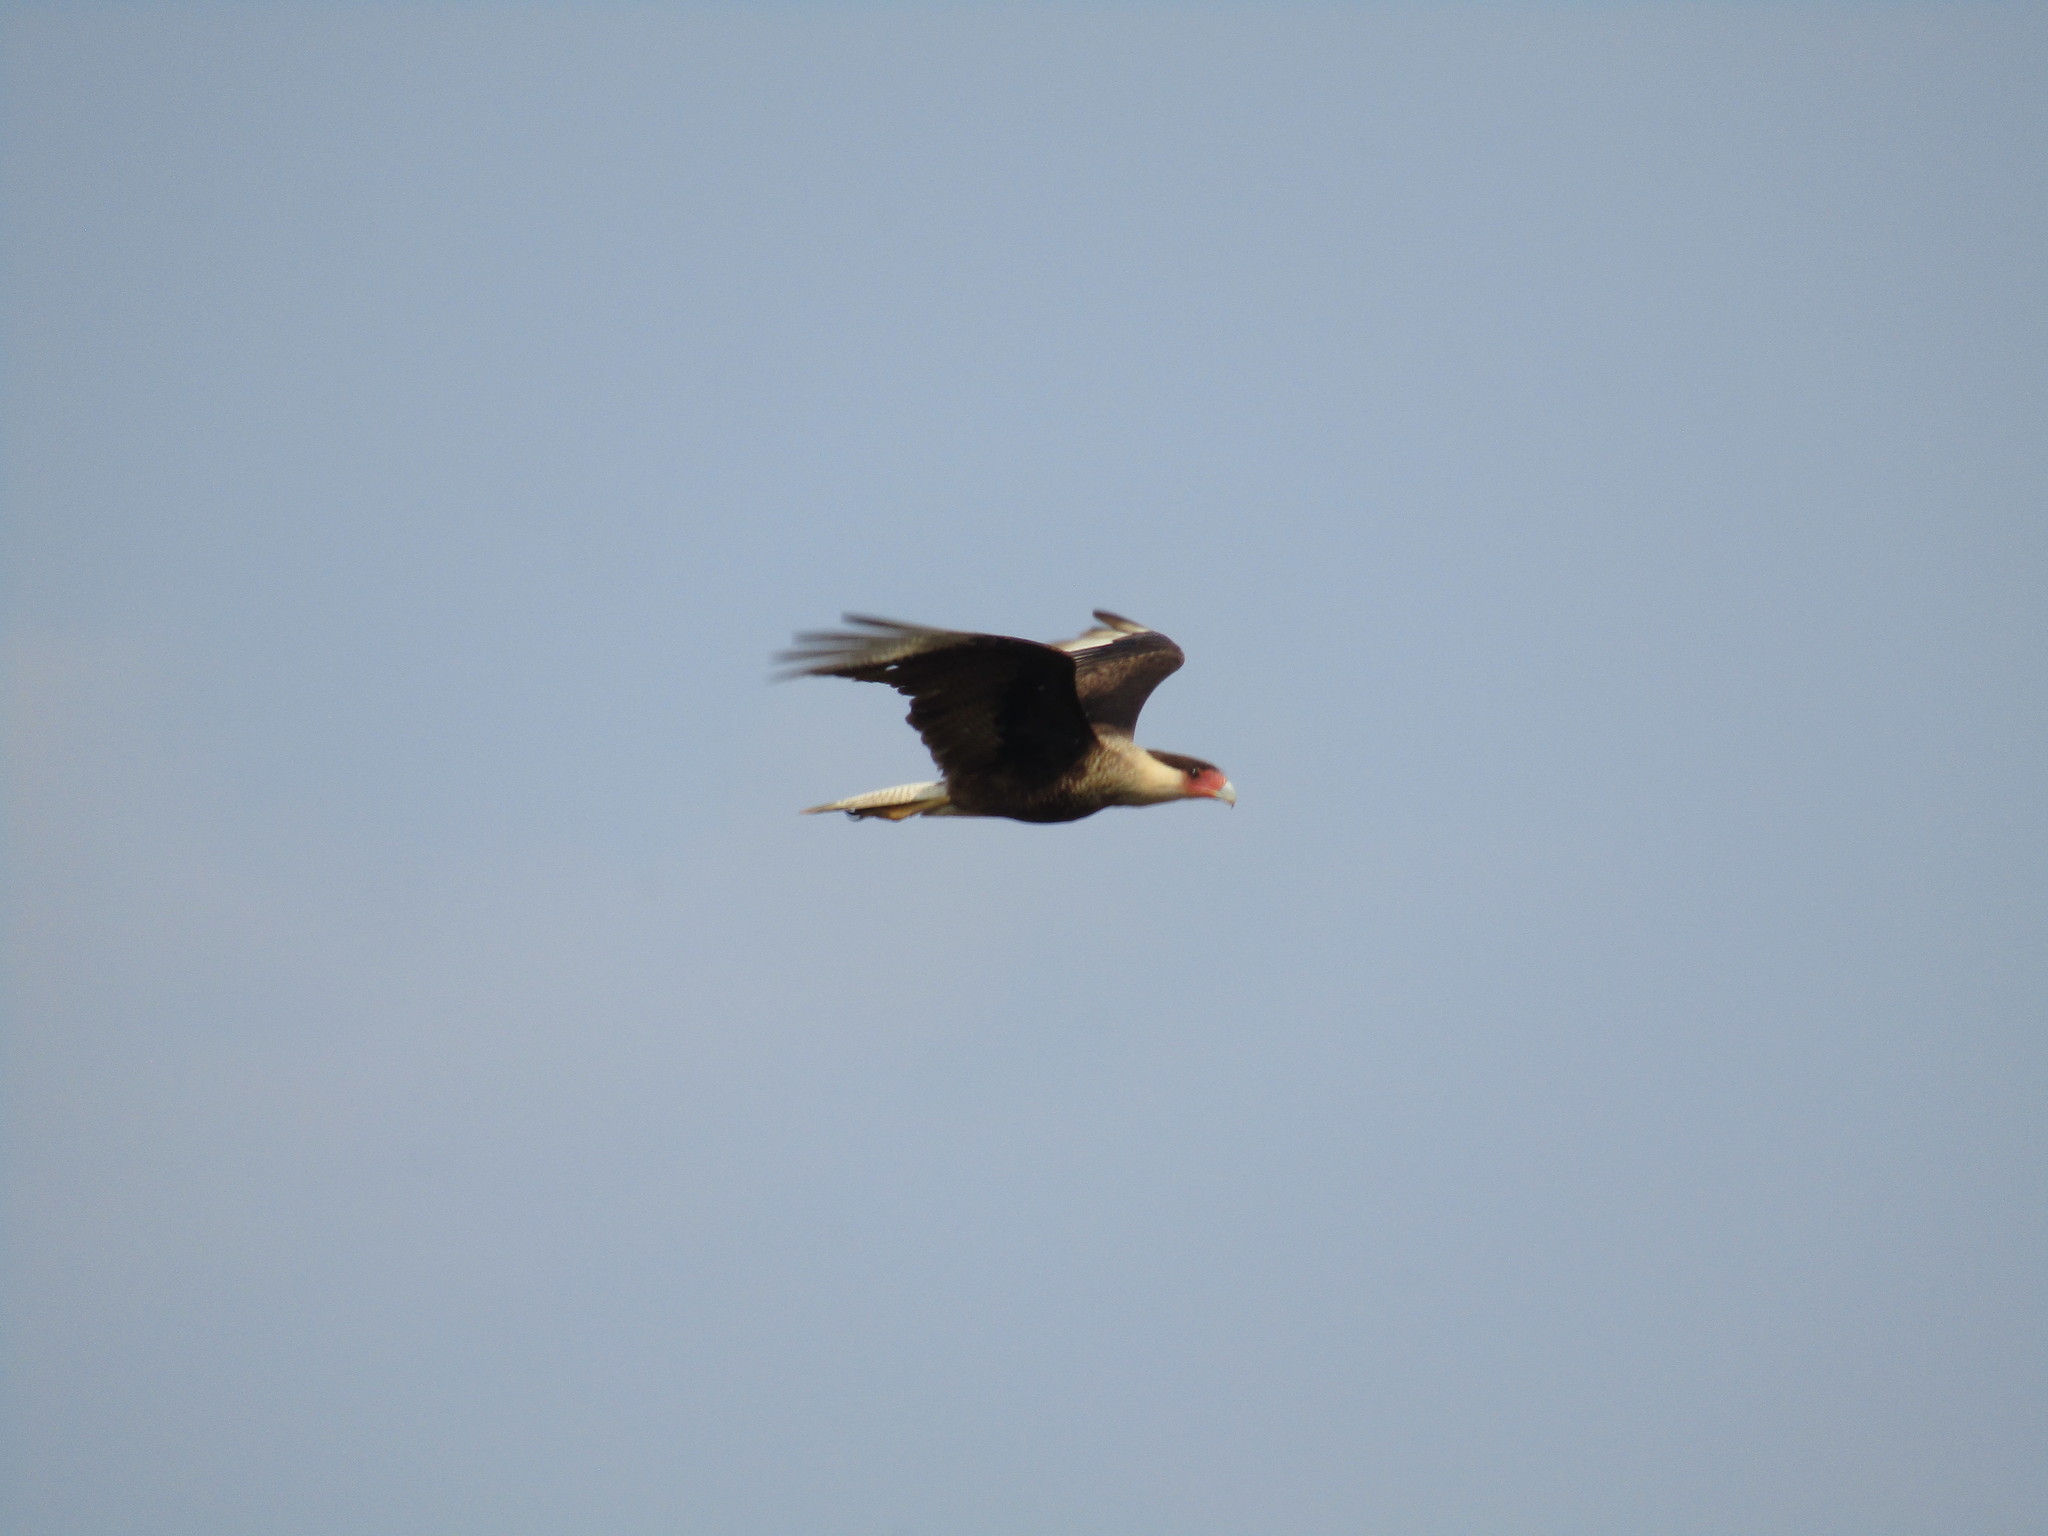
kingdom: Animalia
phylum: Chordata
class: Aves
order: Falconiformes
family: Falconidae
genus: Caracara
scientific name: Caracara plancus
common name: Southern caracara
